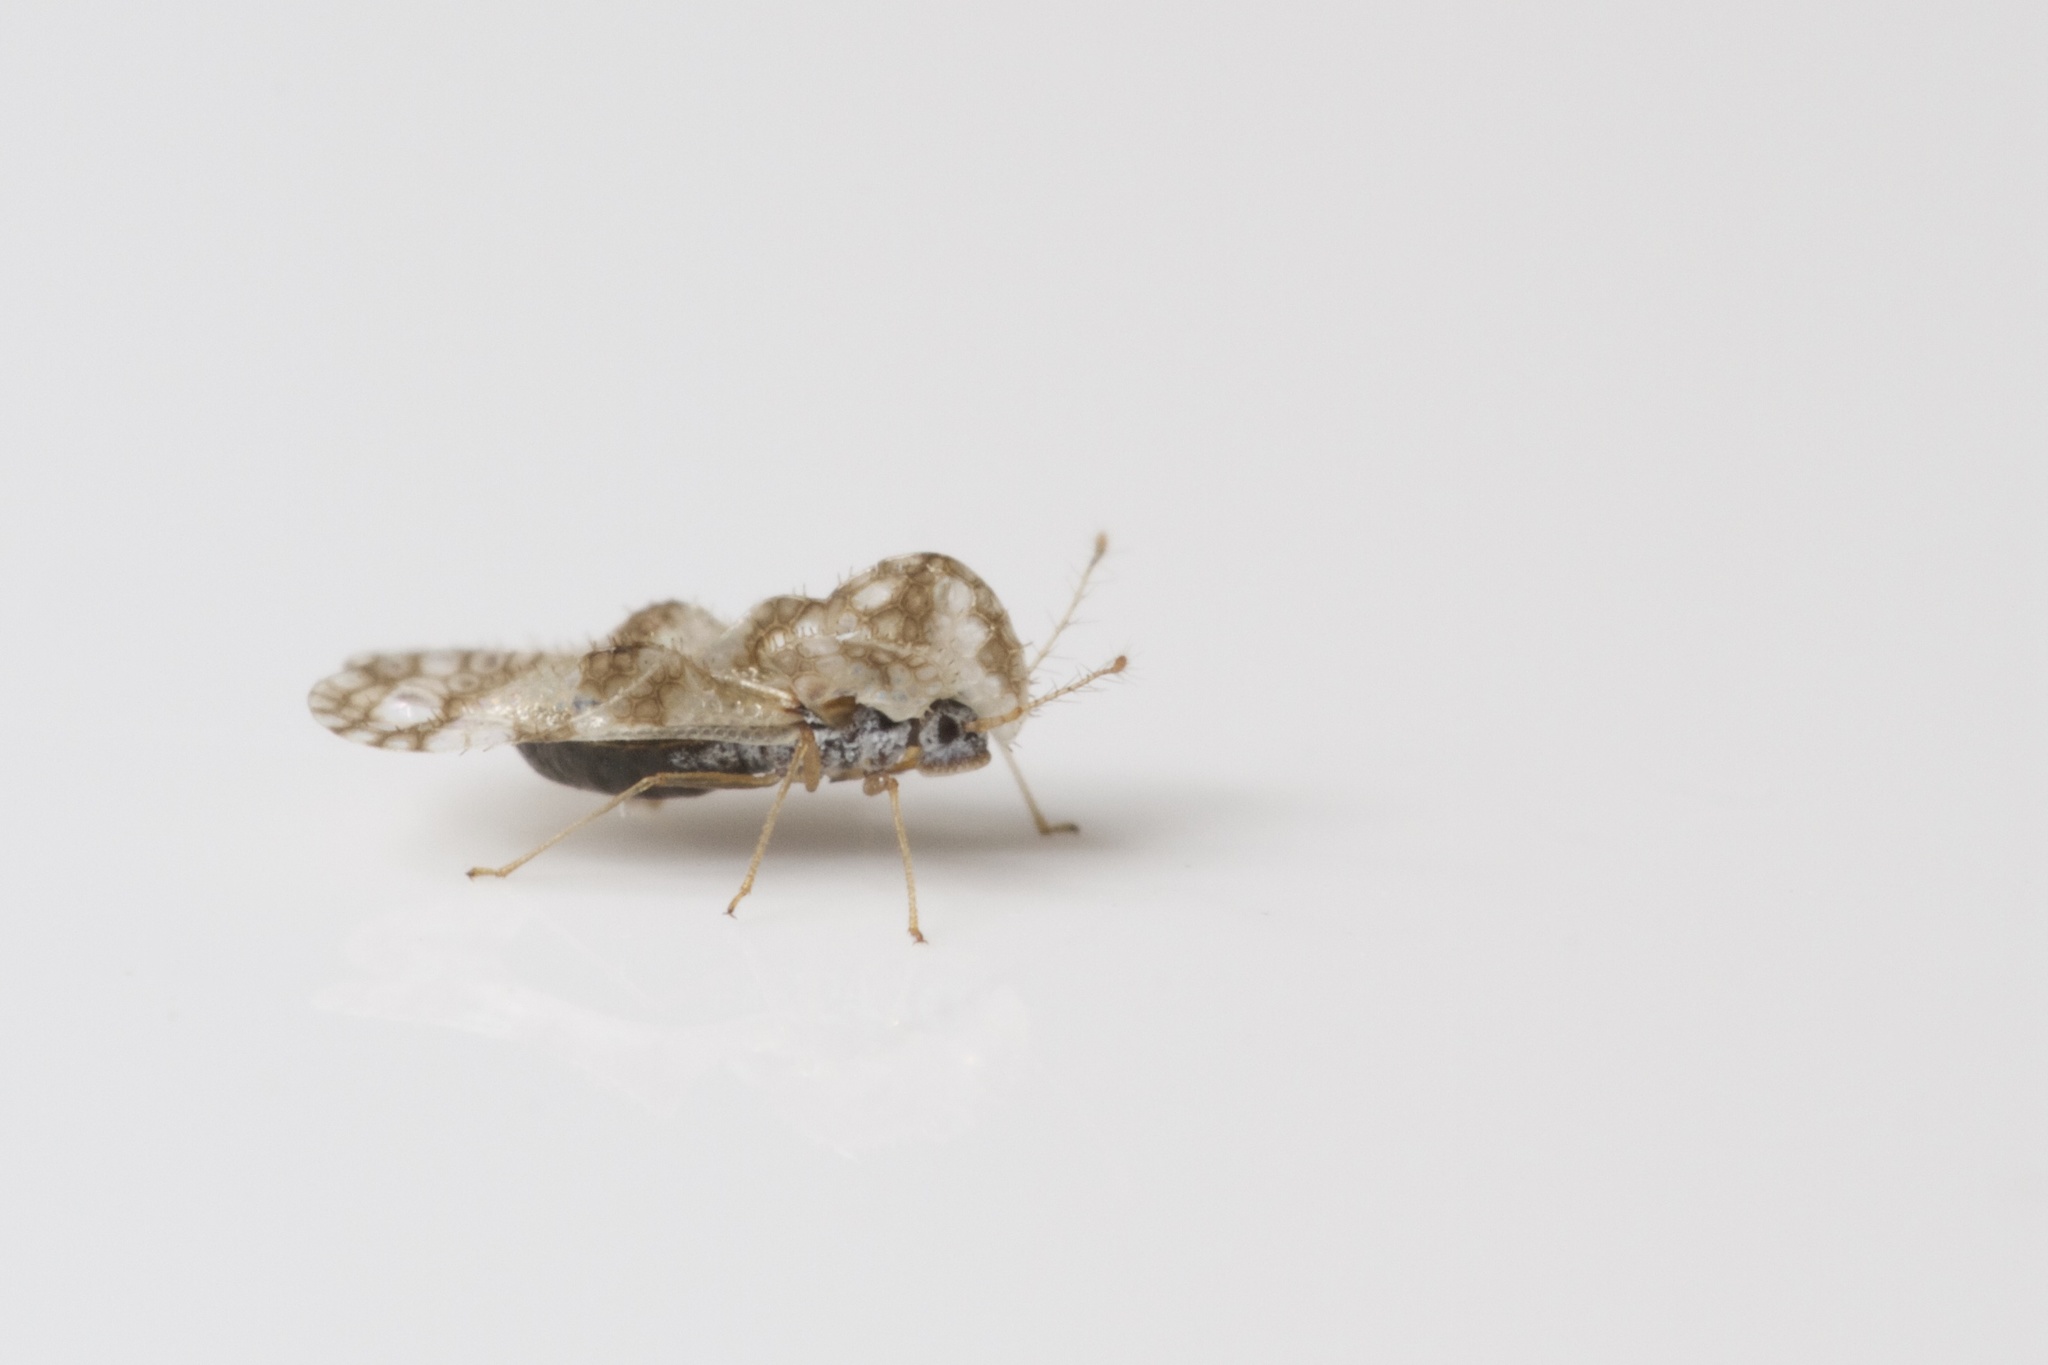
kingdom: Animalia
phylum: Arthropoda
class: Insecta
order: Hemiptera
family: Tingidae
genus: Corythucha
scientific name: Corythucha marmorata
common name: Chrysanthemum lace bug
